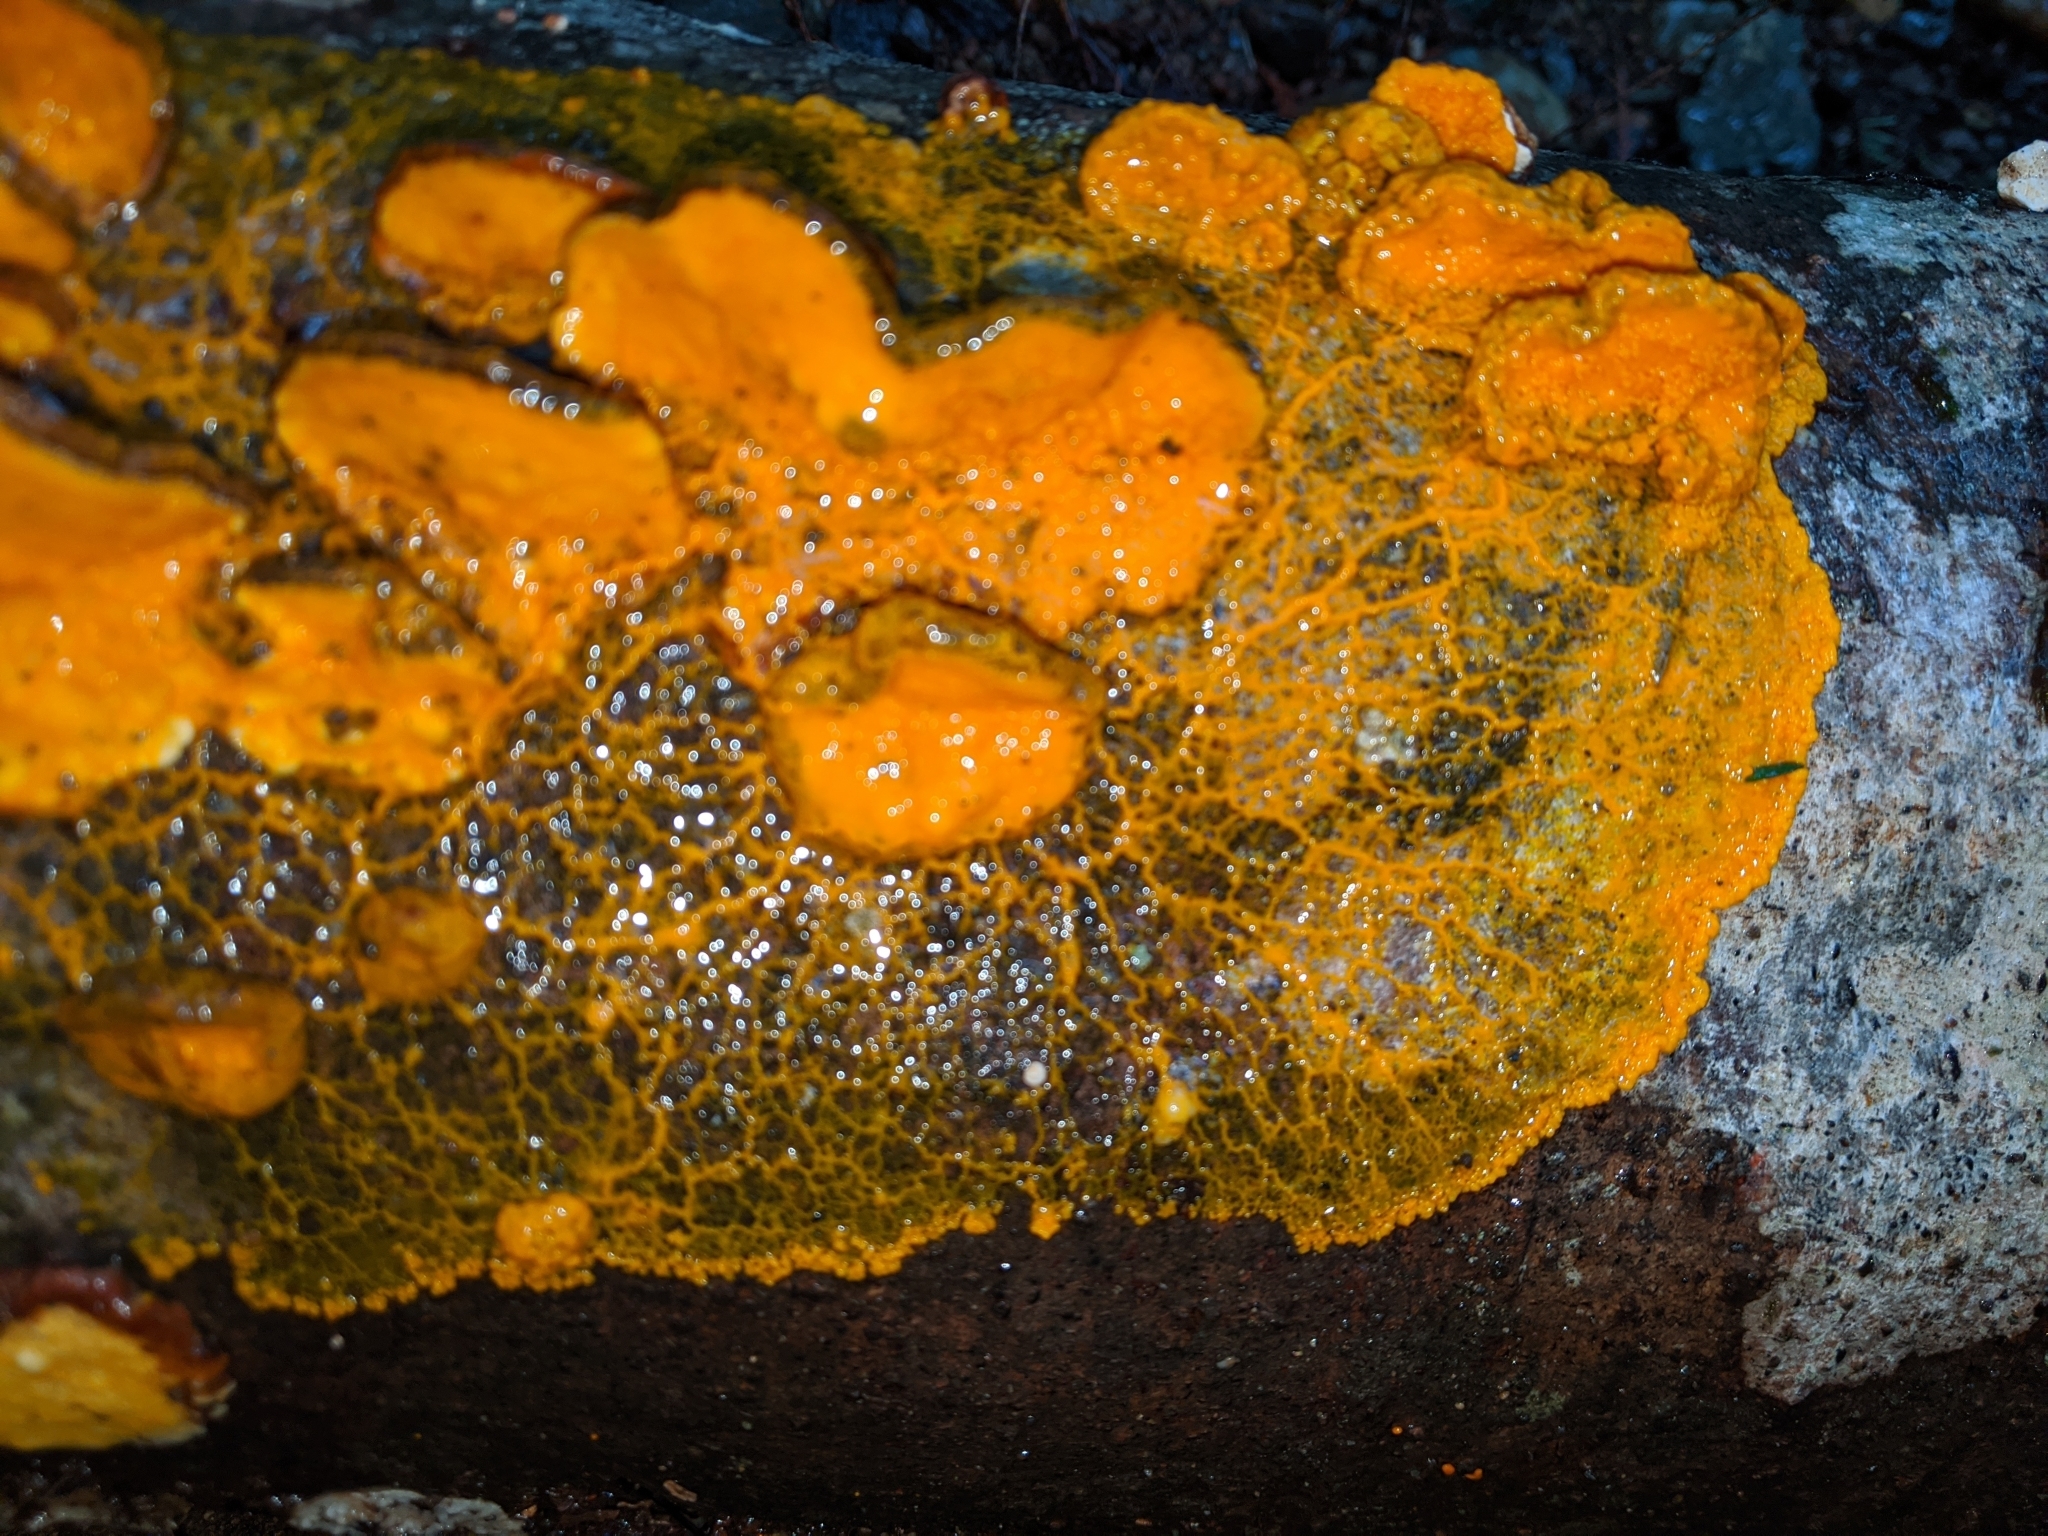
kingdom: Protozoa
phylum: Mycetozoa
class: Myxomycetes
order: Physarales
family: Physaraceae
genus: Badhamia
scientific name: Badhamia utricularis
